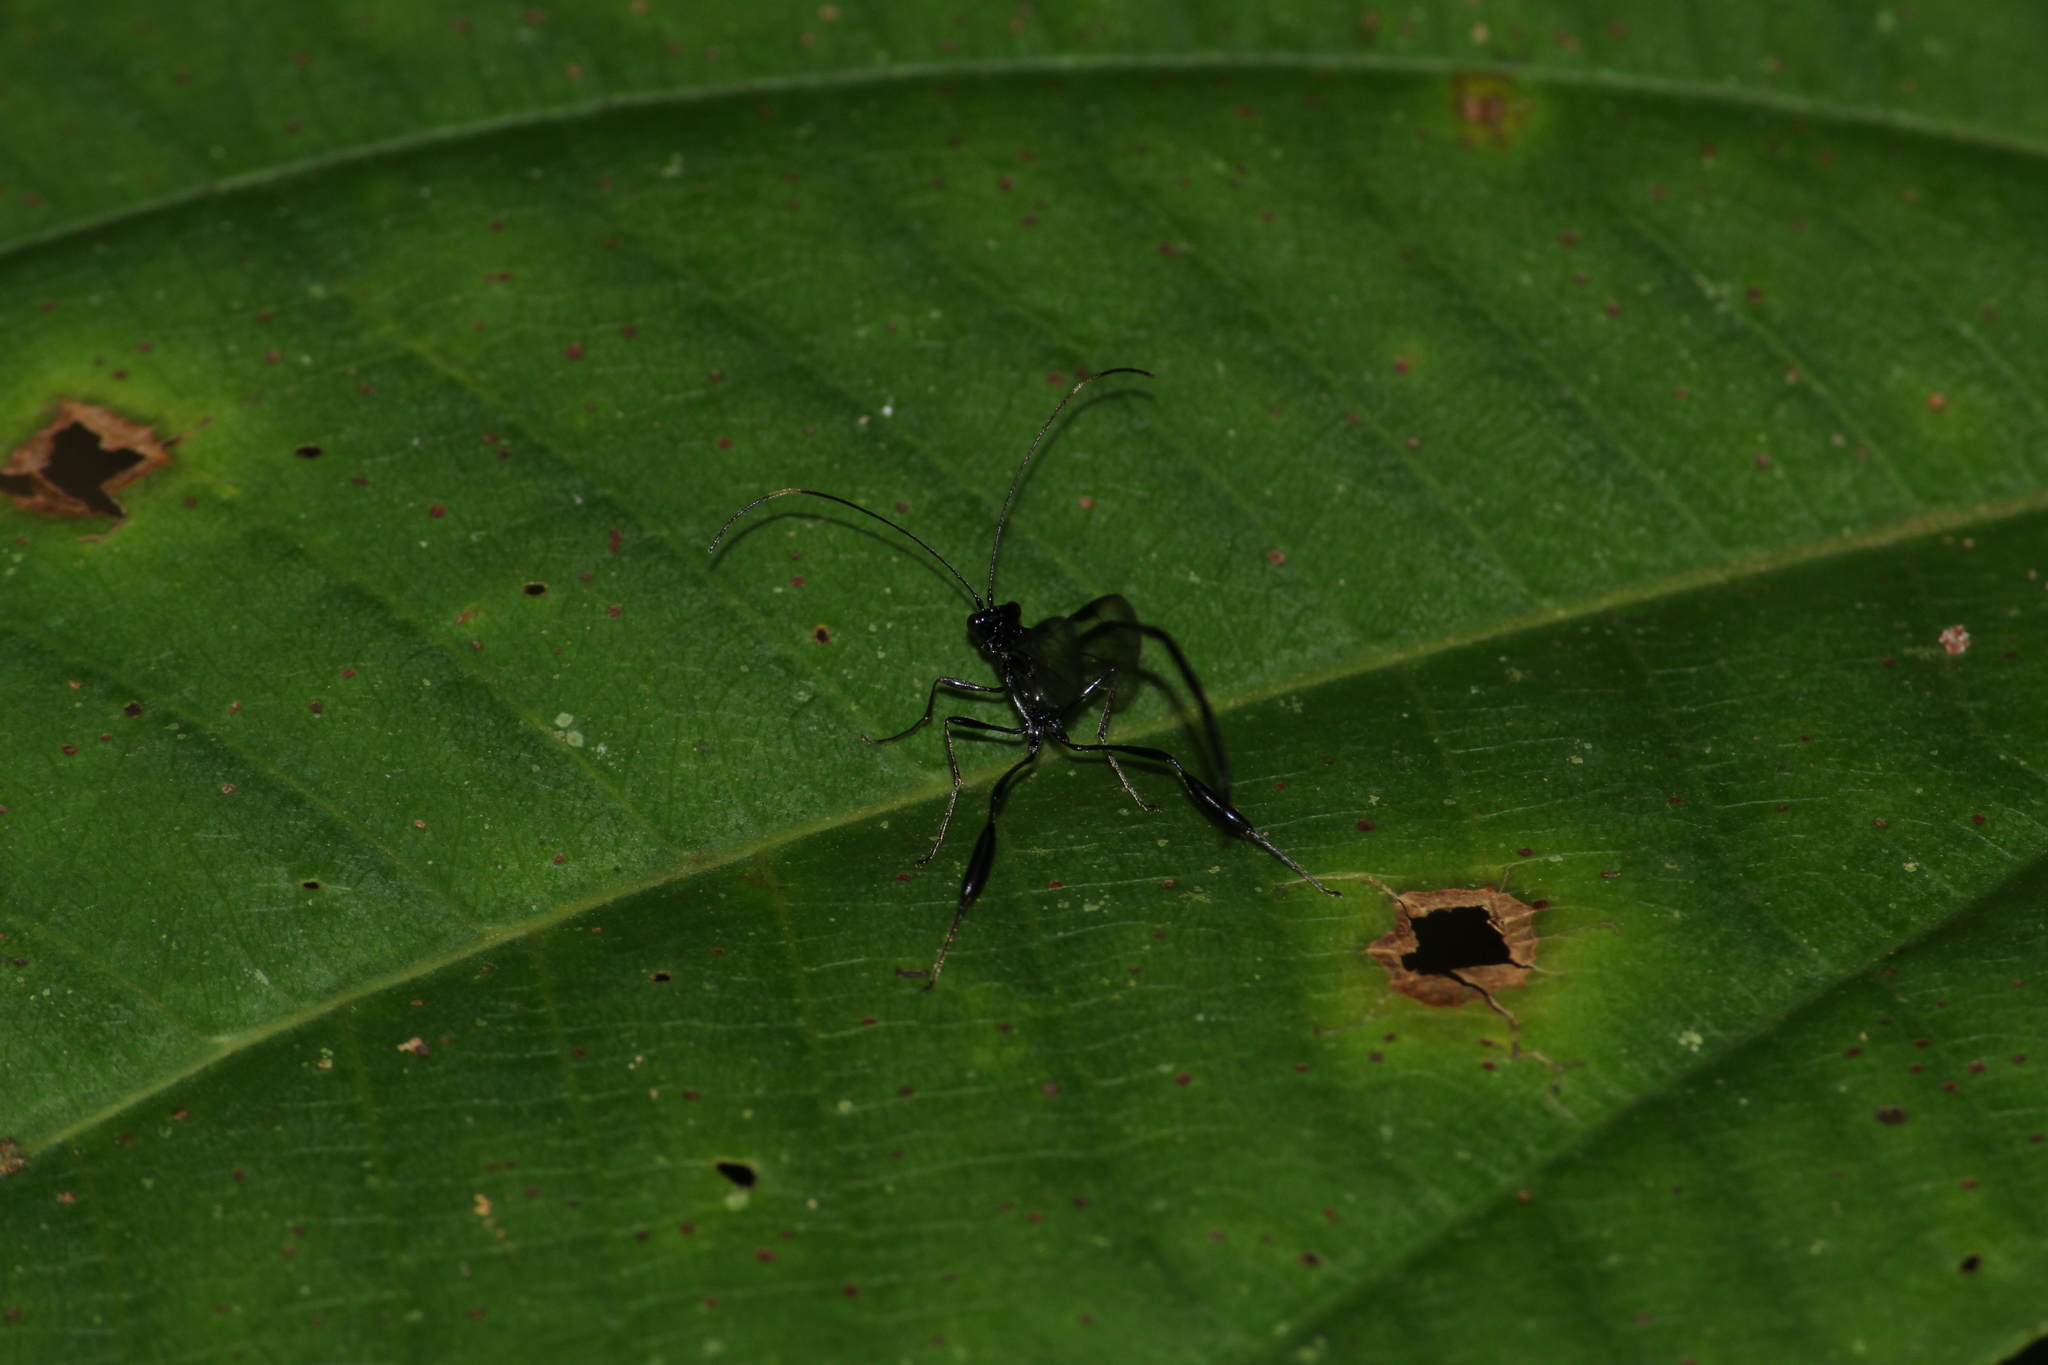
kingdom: Animalia
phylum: Arthropoda
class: Insecta
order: Hymenoptera
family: Pelecinidae
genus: Pelecinus
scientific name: Pelecinus polyturator
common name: American pelecinid wasp
